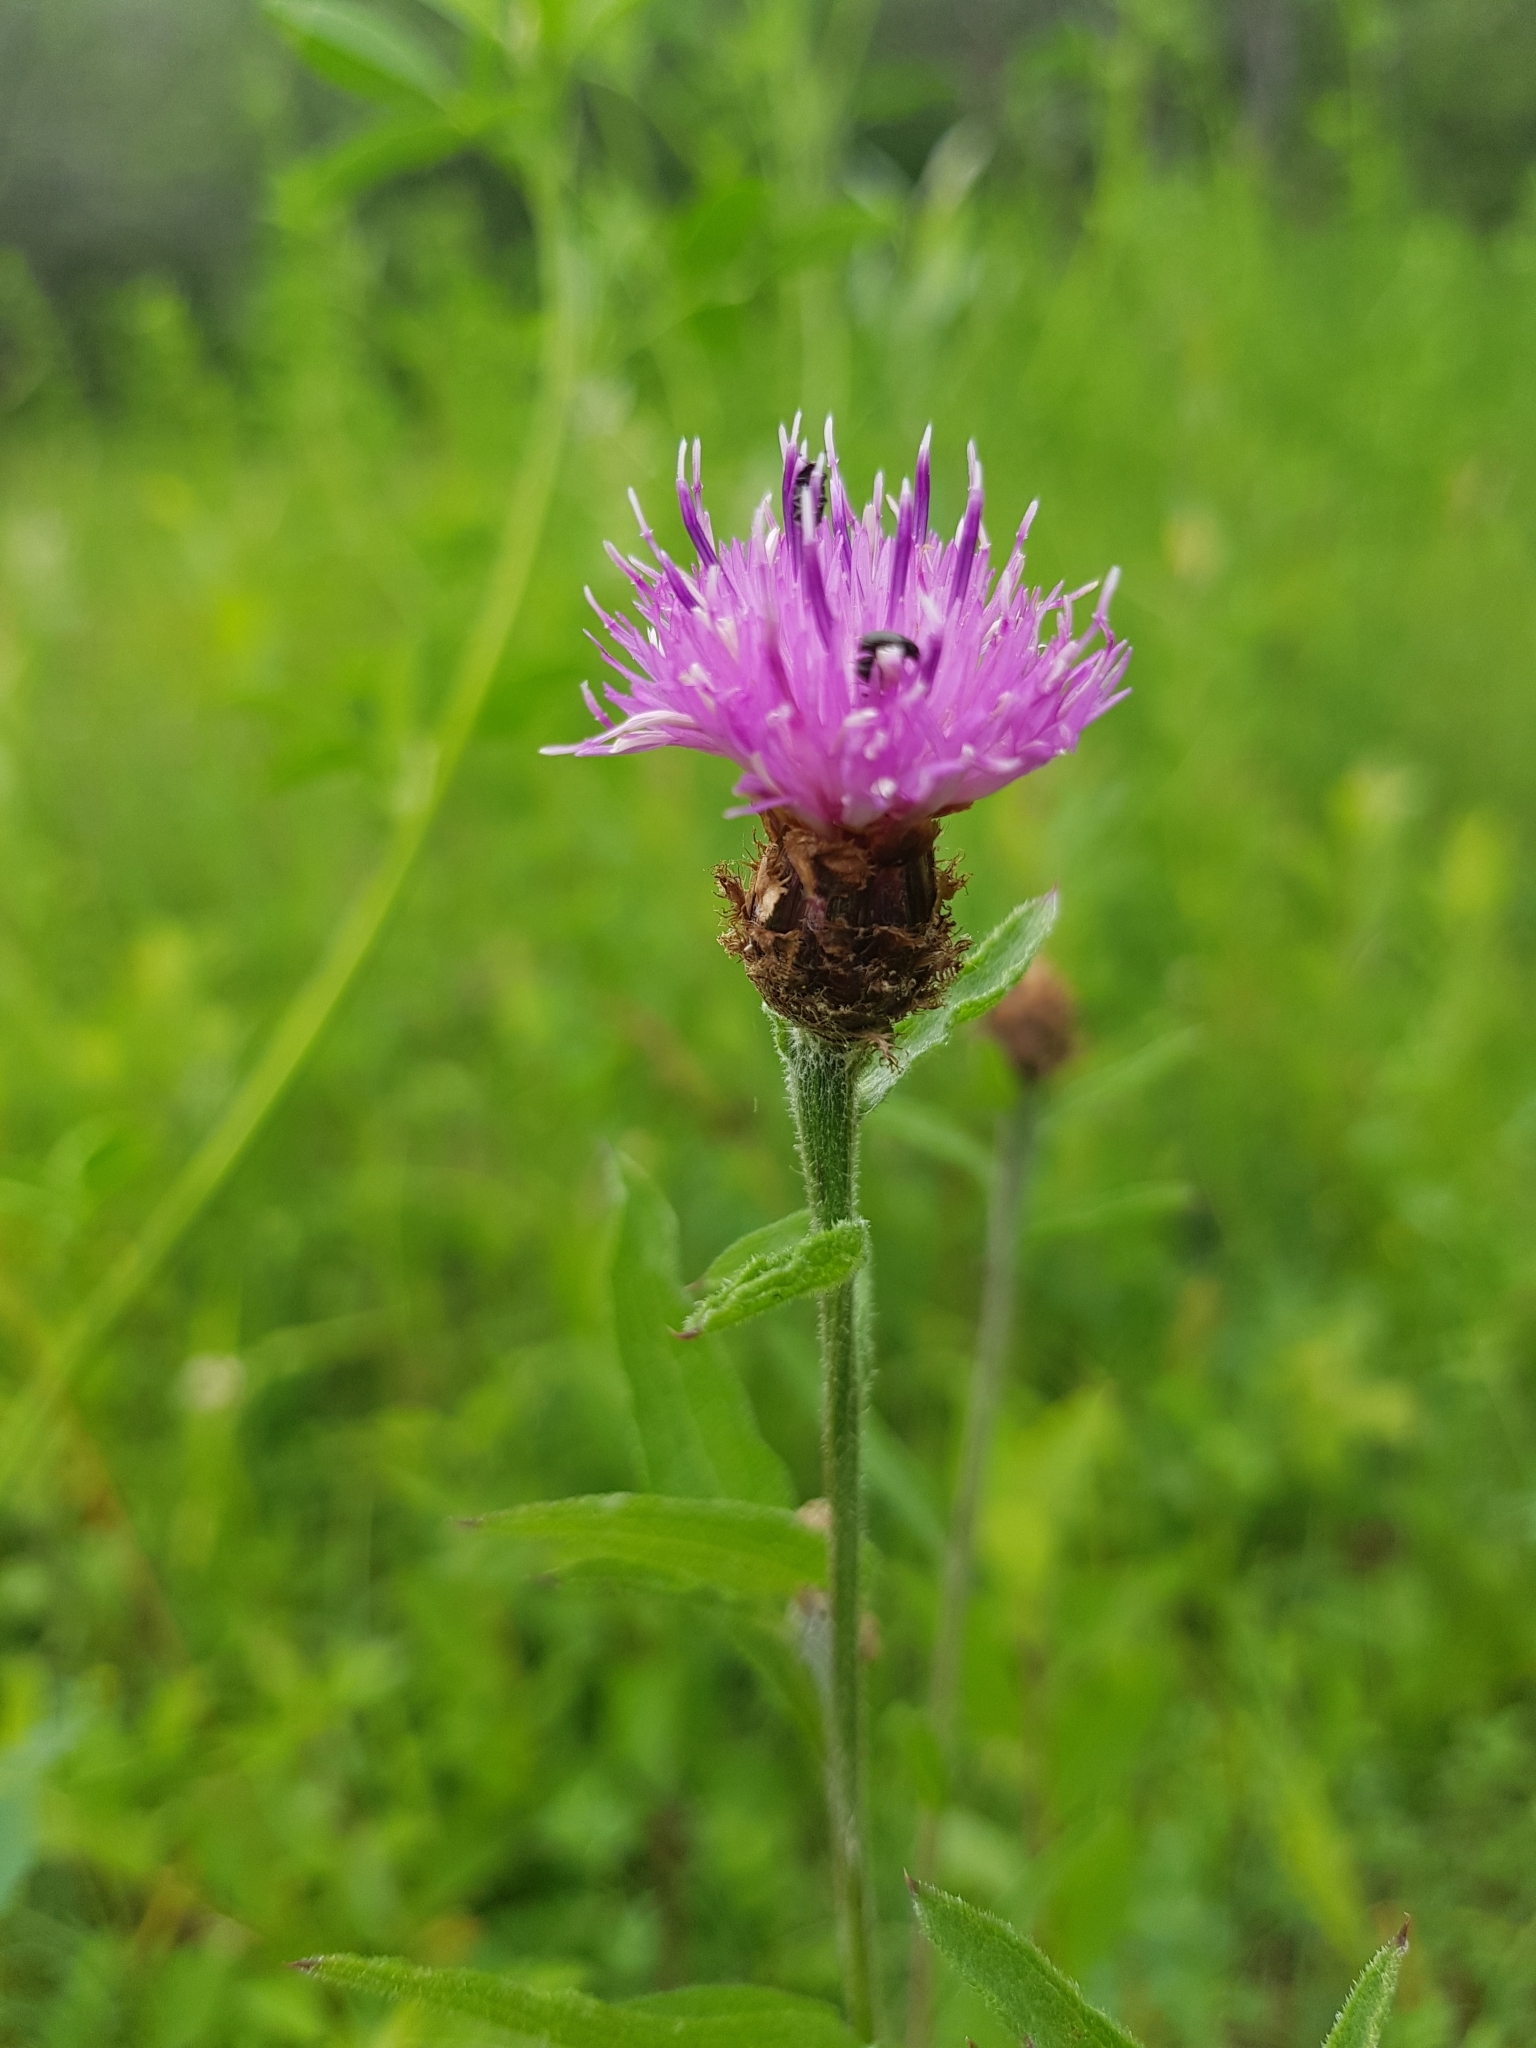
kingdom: Plantae
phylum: Tracheophyta
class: Magnoliopsida
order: Asterales
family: Asteraceae
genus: Centaurea
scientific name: Centaurea jacea
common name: Brown knapweed
